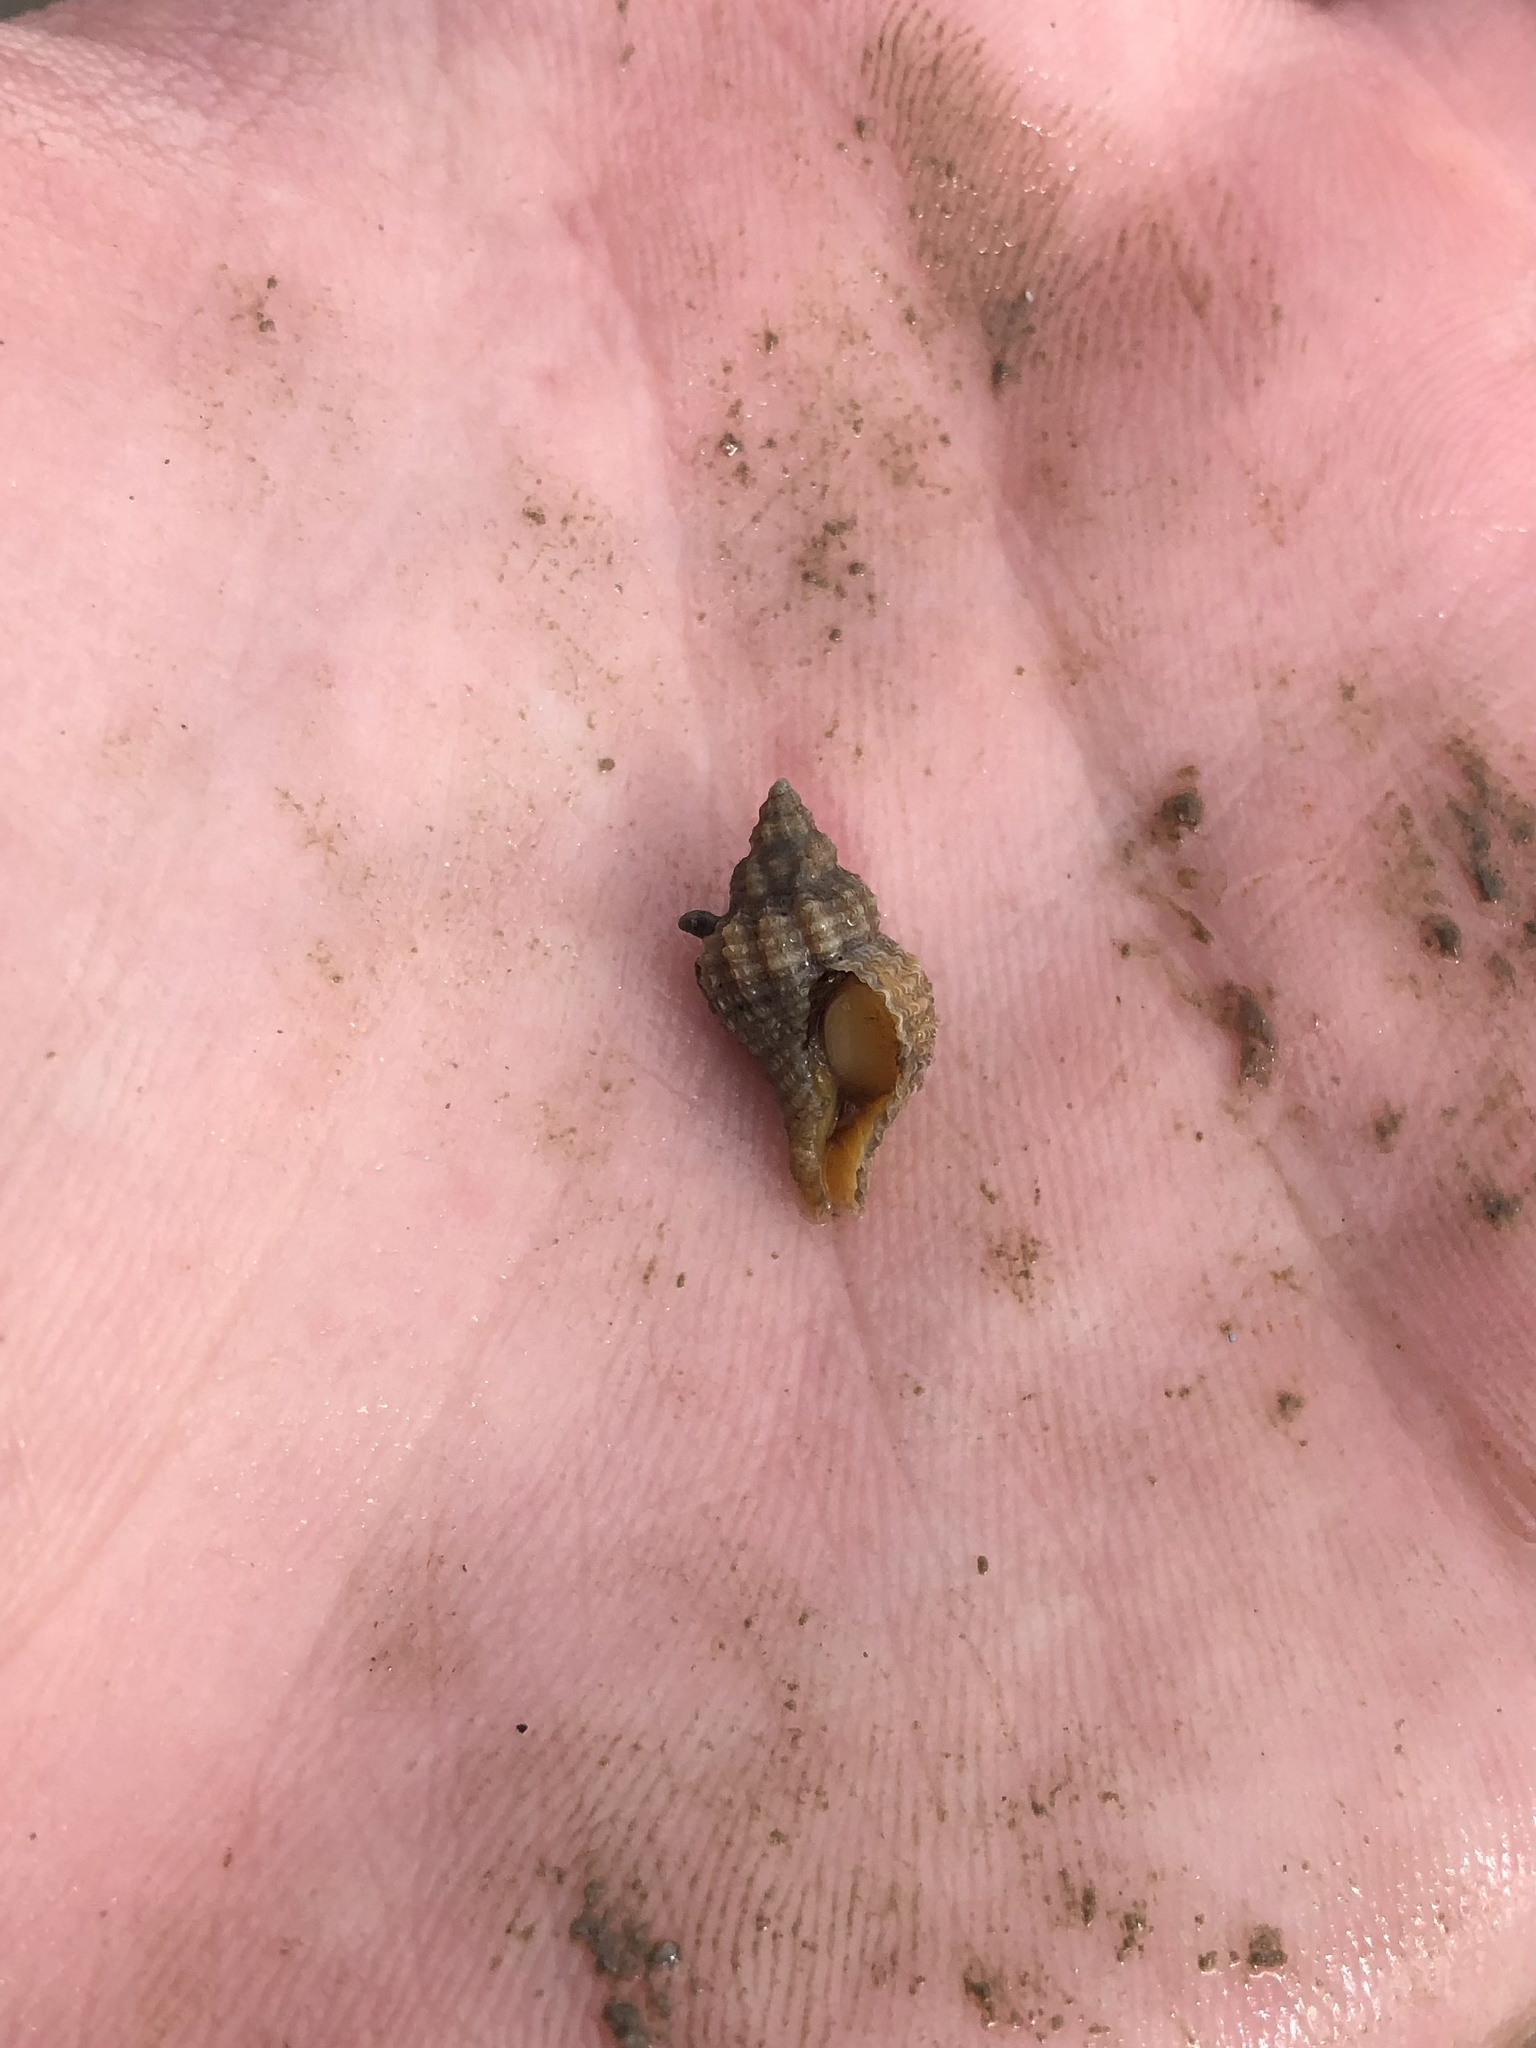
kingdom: Animalia
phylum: Mollusca
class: Gastropoda
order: Neogastropoda
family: Muricidae
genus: Urosalpinx
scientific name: Urosalpinx cinerea
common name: American sting winkle
